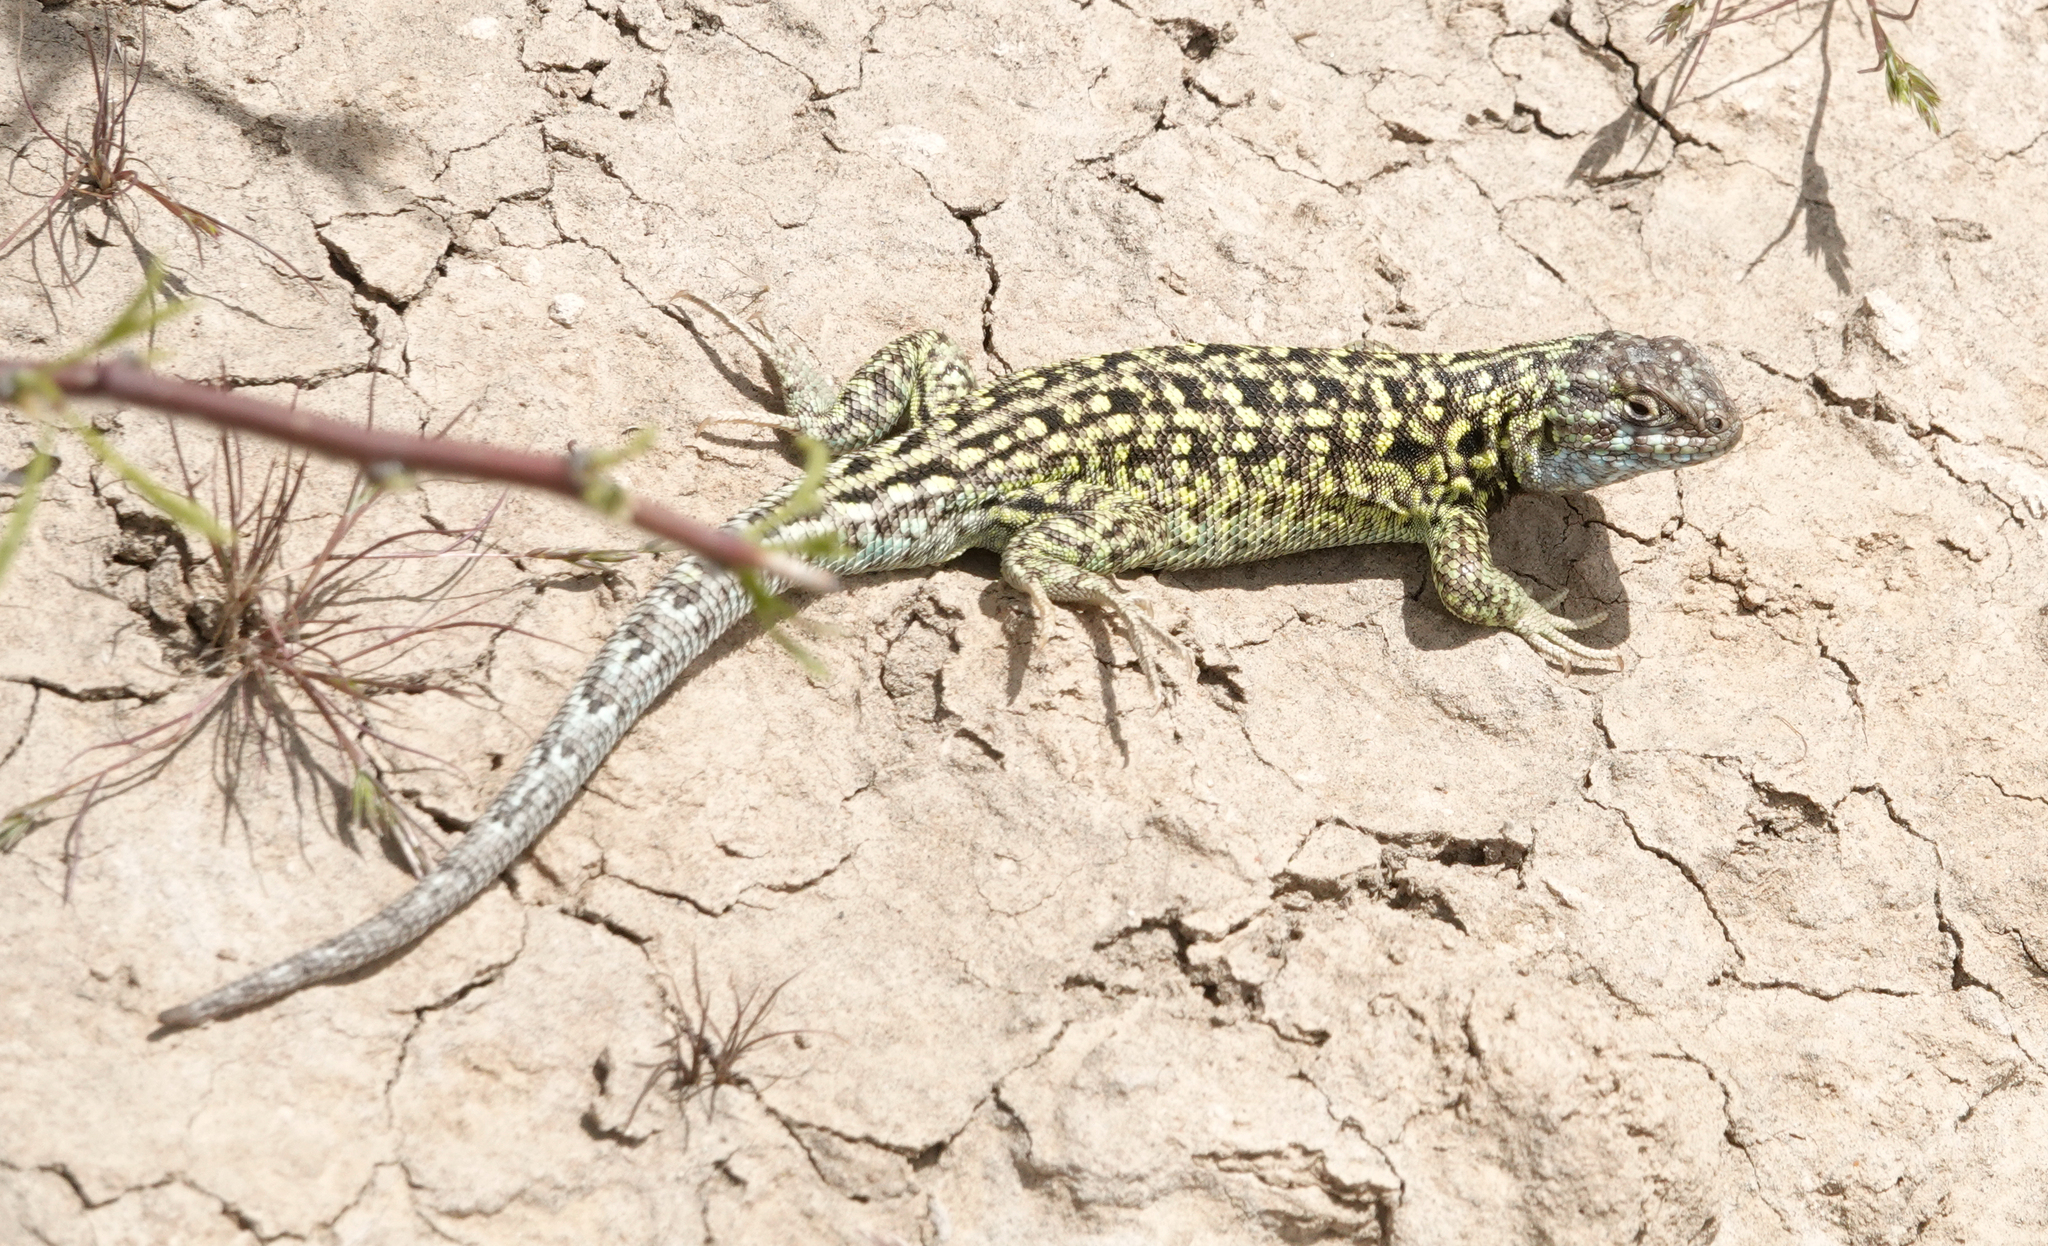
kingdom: Animalia
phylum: Chordata
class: Squamata
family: Liolaemidae
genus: Liolaemus
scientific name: Liolaemus melanops
